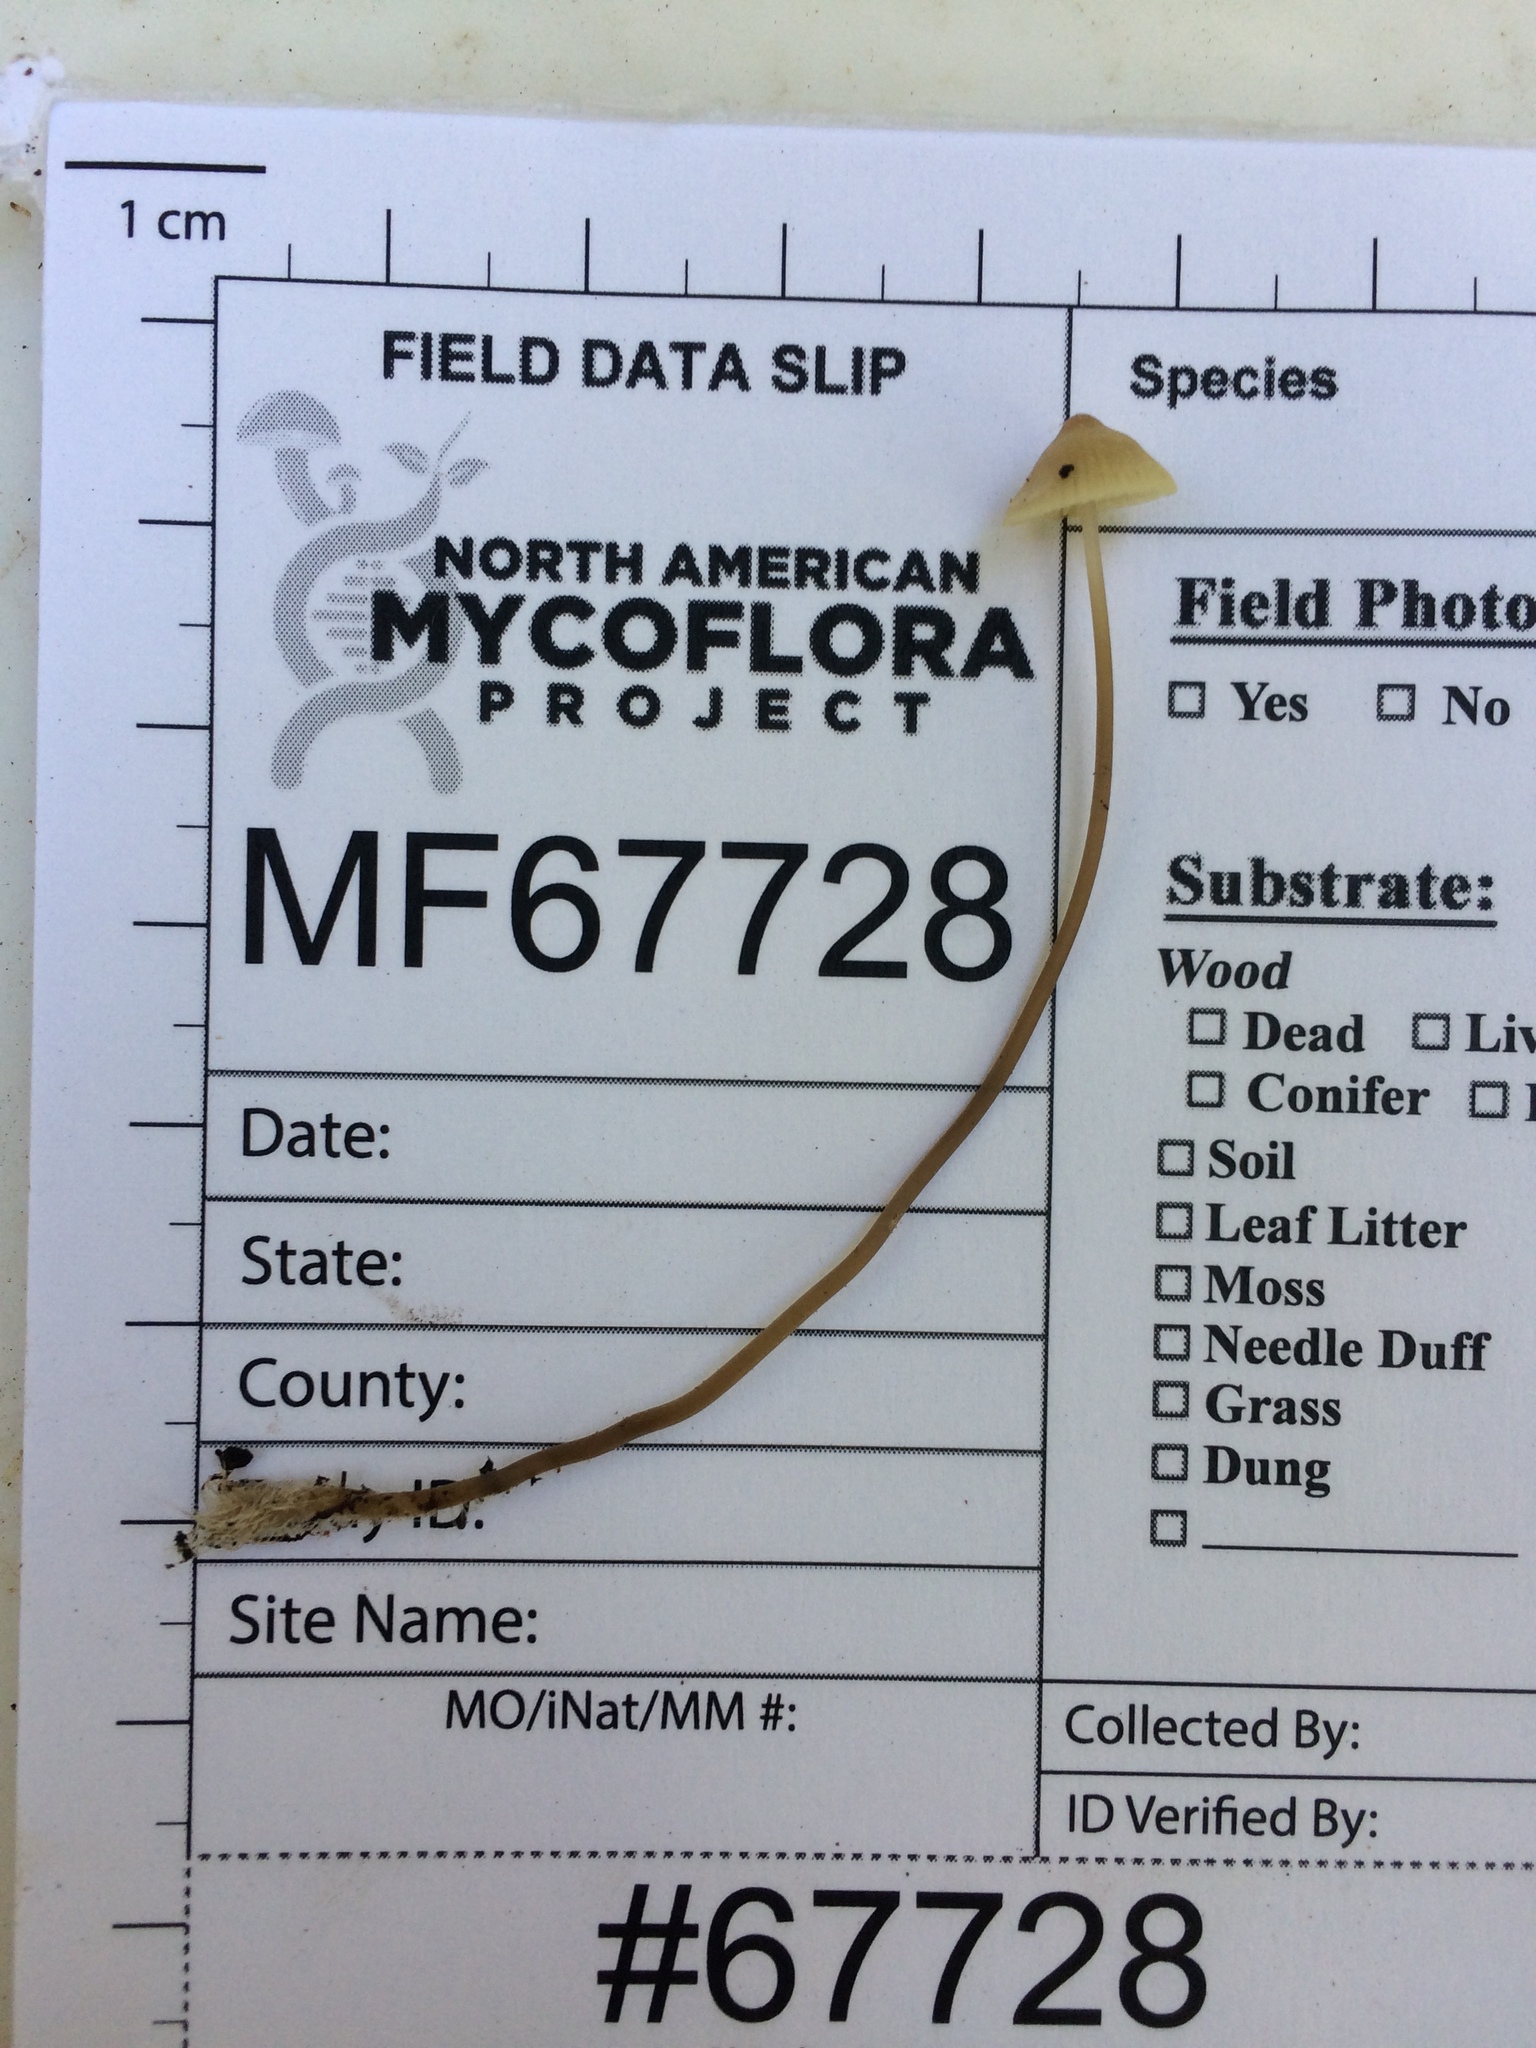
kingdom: Fungi
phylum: Basidiomycota
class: Agaricomycetes
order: Agaricales
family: Mycenaceae
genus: Mycena
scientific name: Mycena filopes
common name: Iodine bonnet
